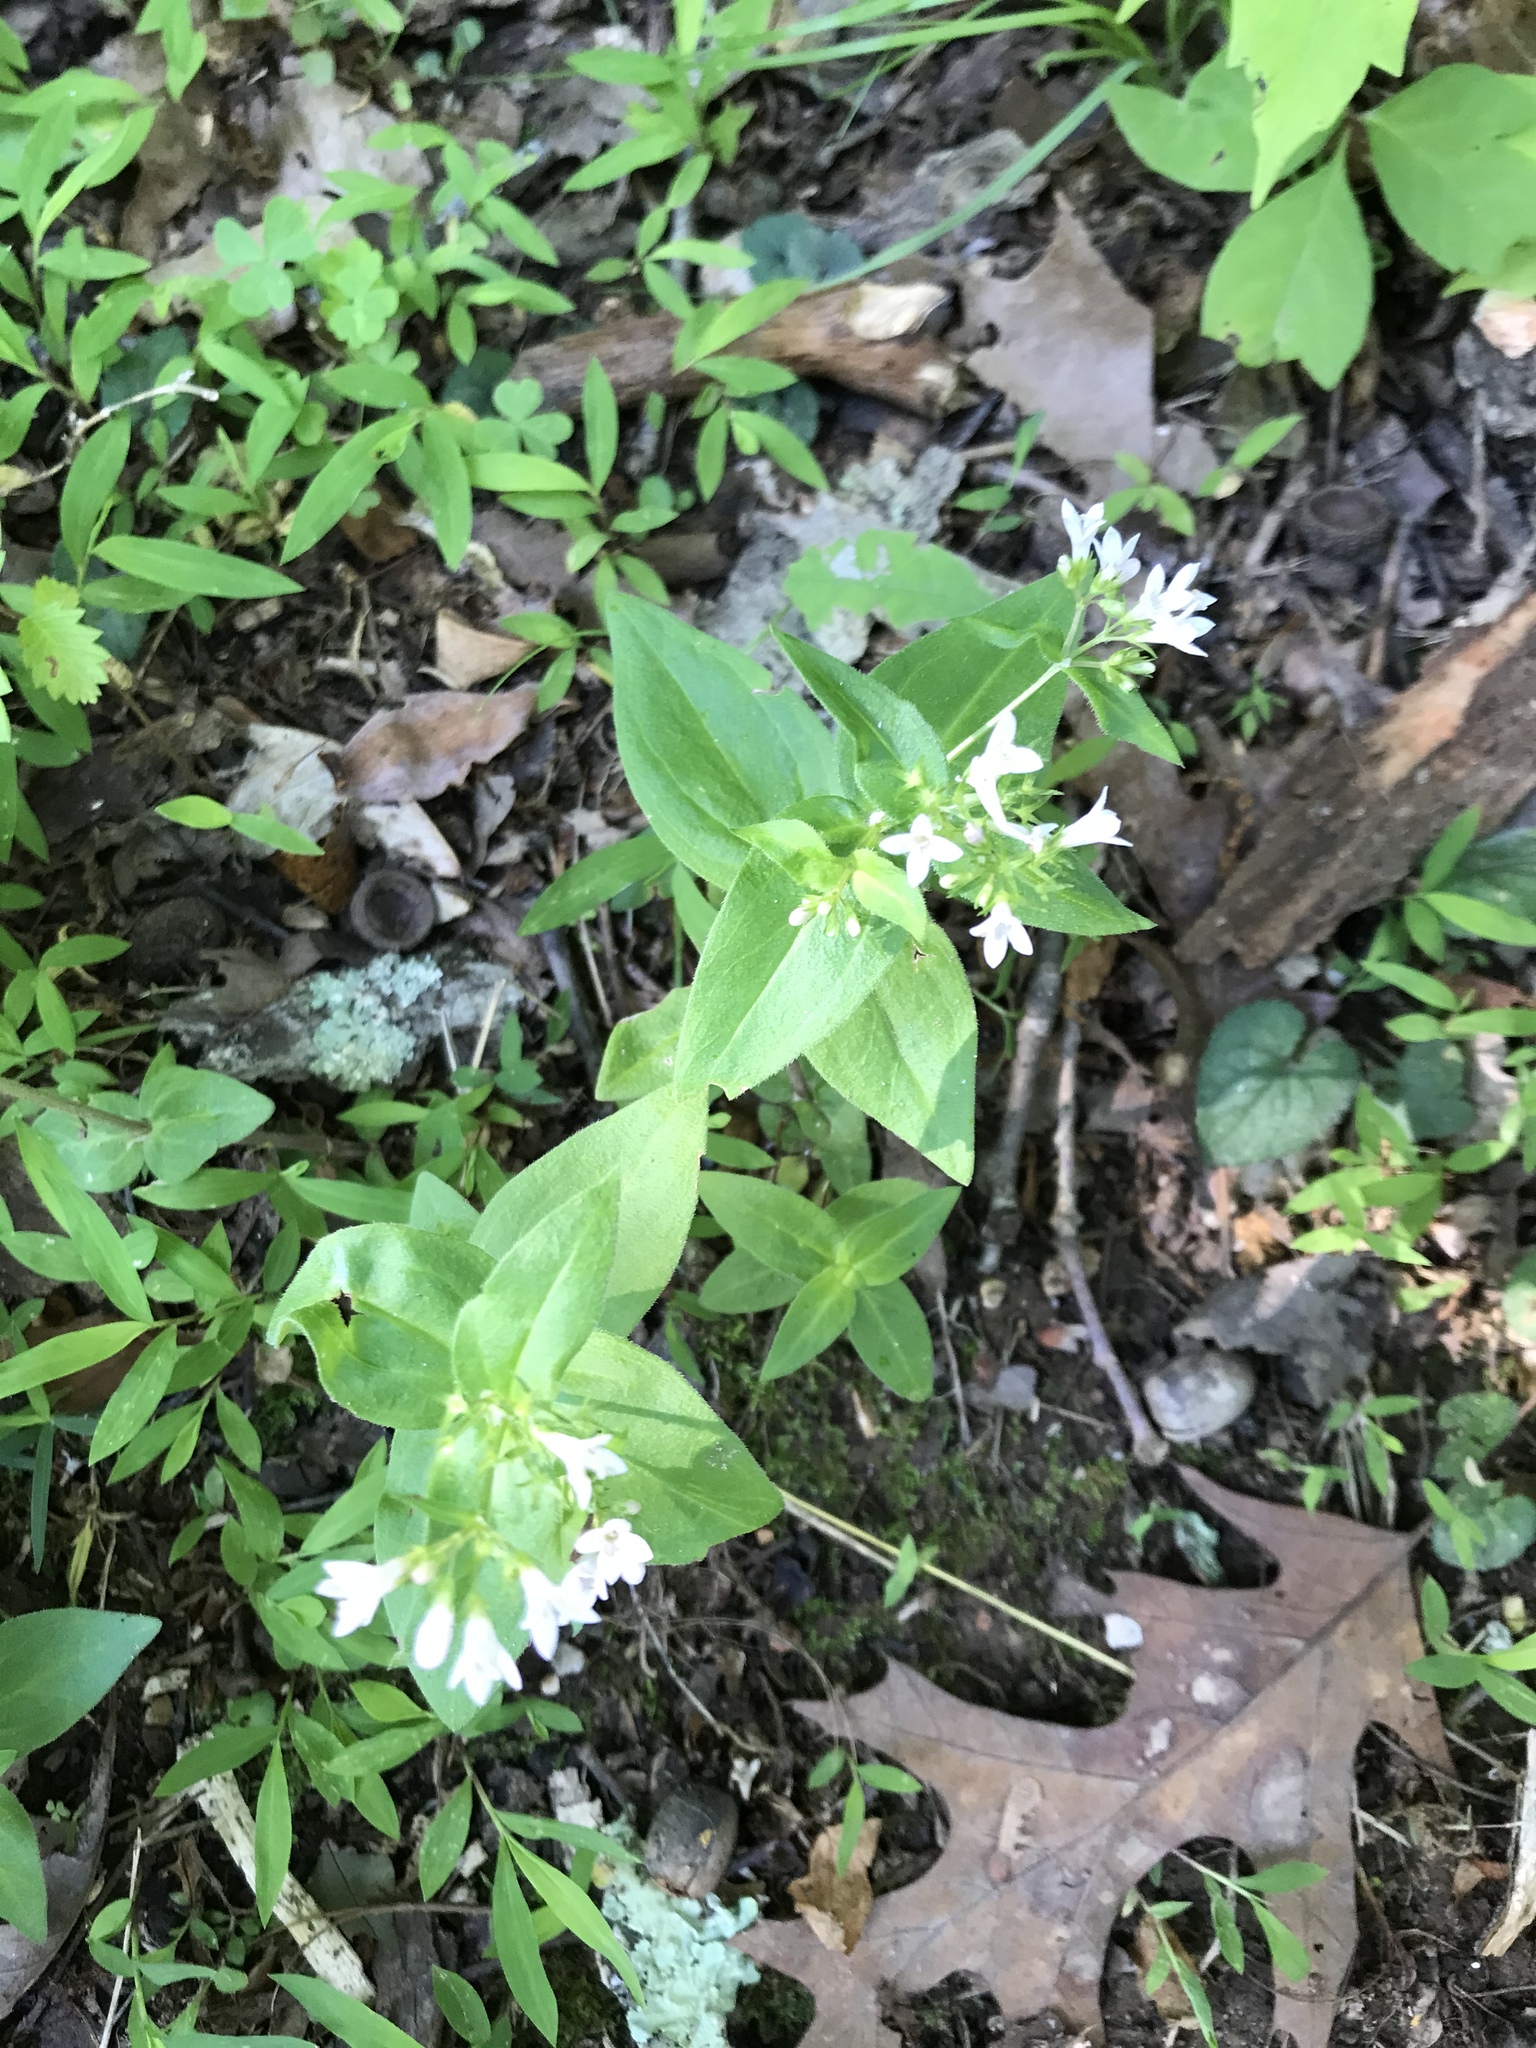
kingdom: Plantae
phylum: Tracheophyta
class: Magnoliopsida
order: Gentianales
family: Rubiaceae
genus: Houstonia
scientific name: Houstonia purpurea
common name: Summer bluet
